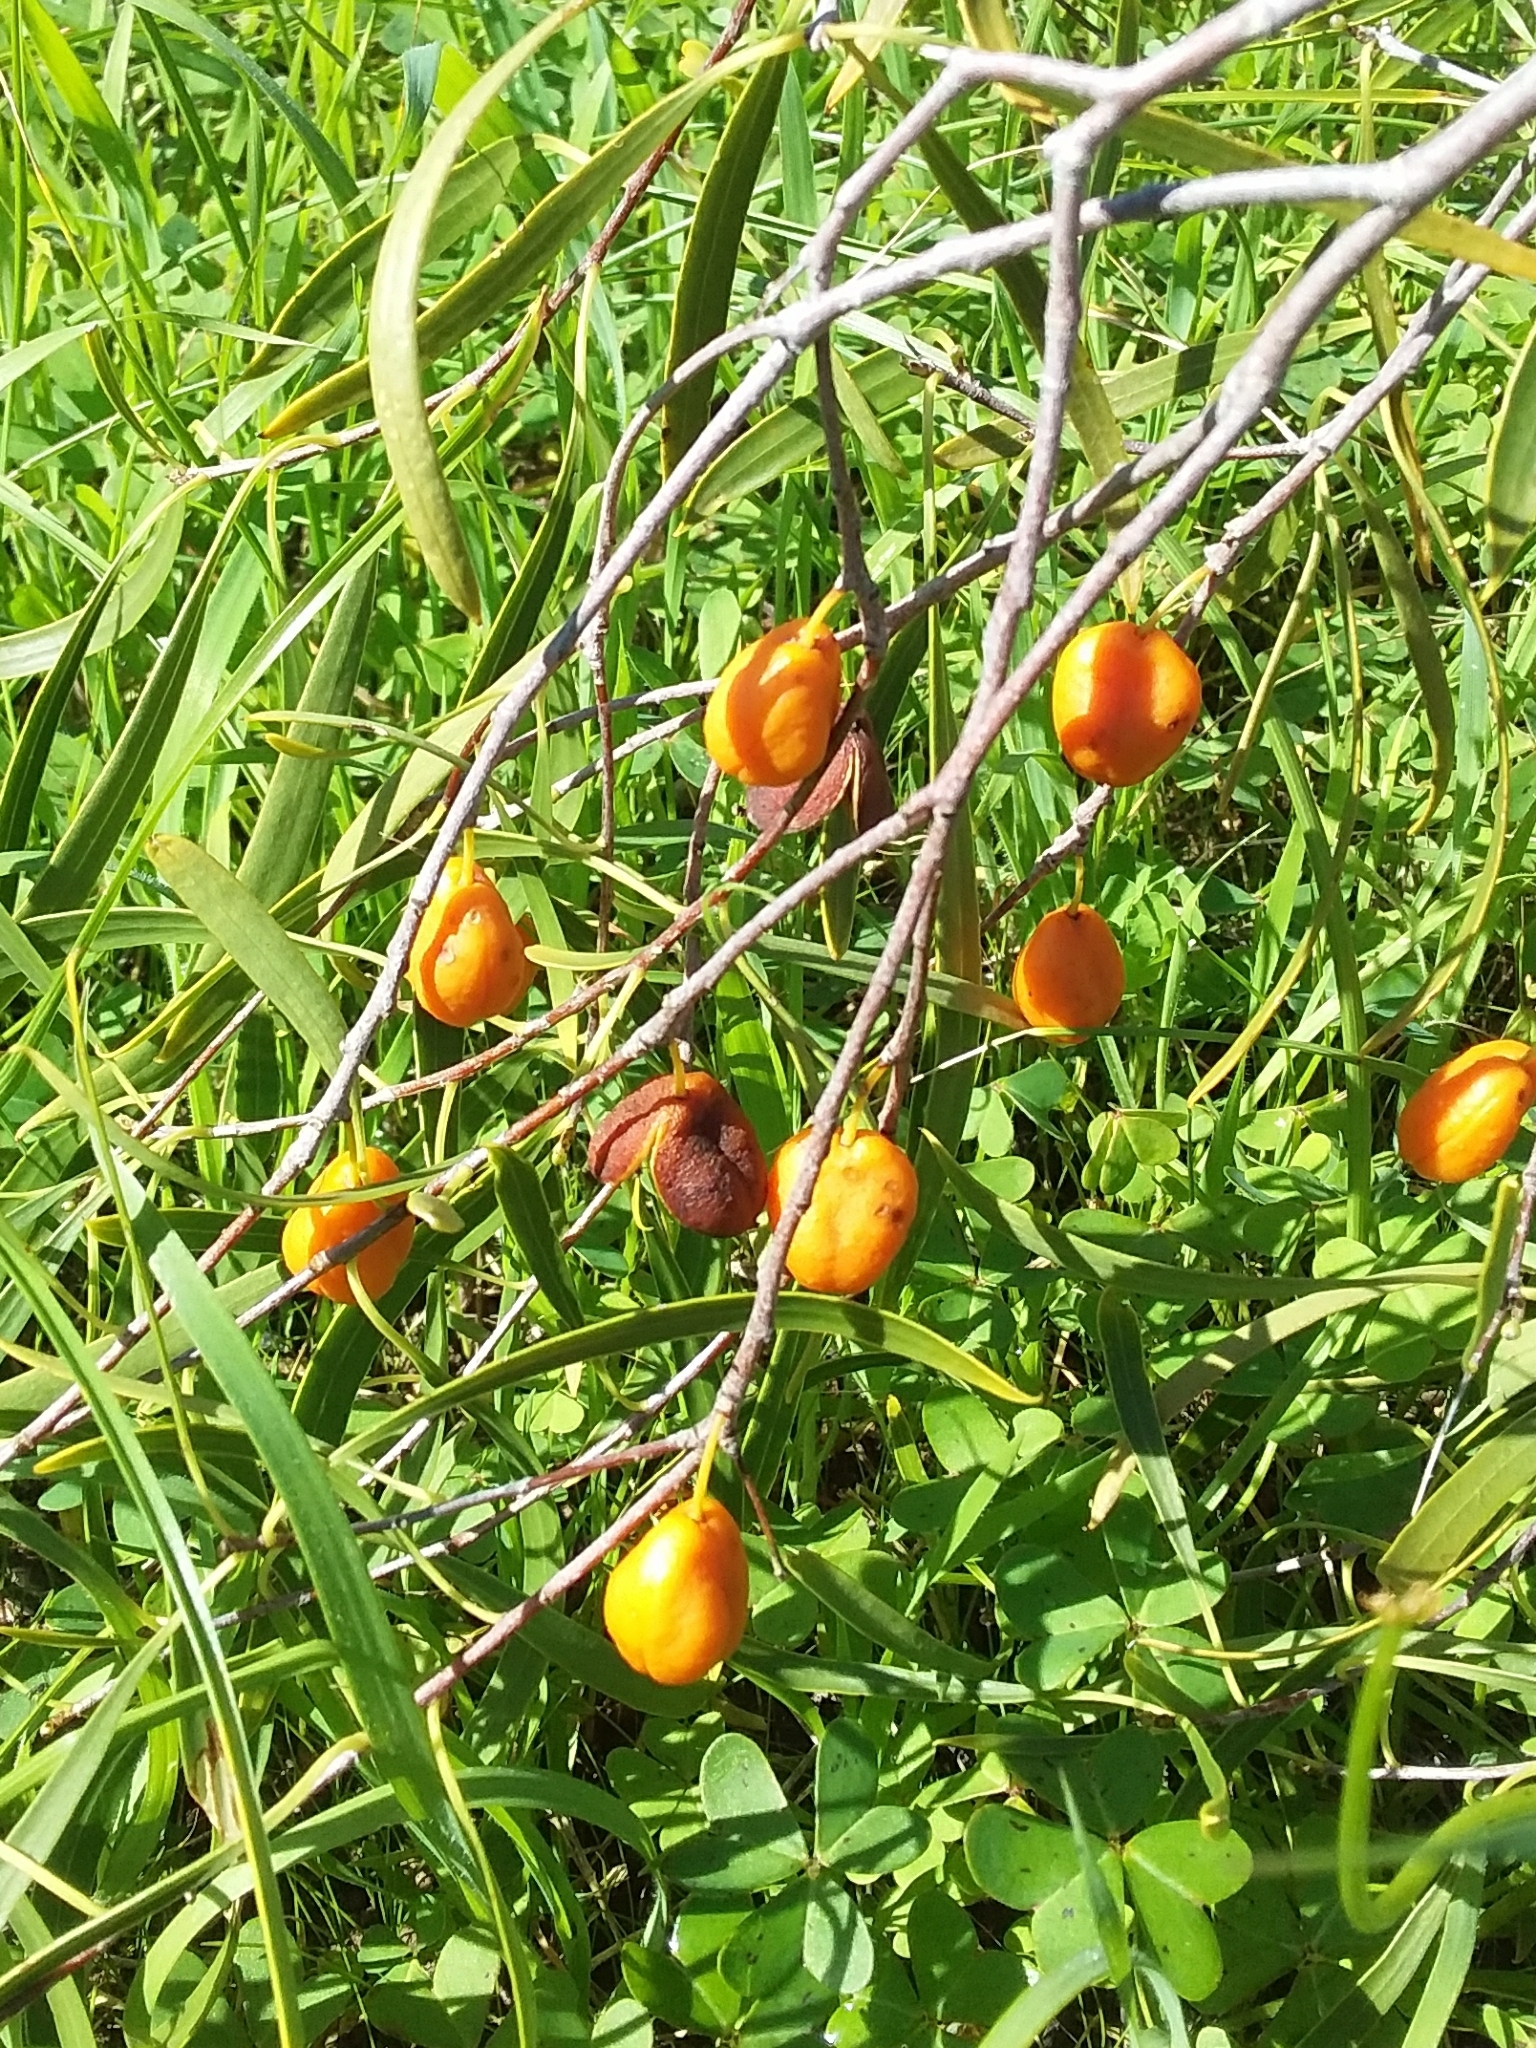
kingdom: Plantae
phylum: Tracheophyta
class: Magnoliopsida
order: Apiales
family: Pittosporaceae
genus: Pittosporum
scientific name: Pittosporum angustifolium
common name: Weeping pittosporum
